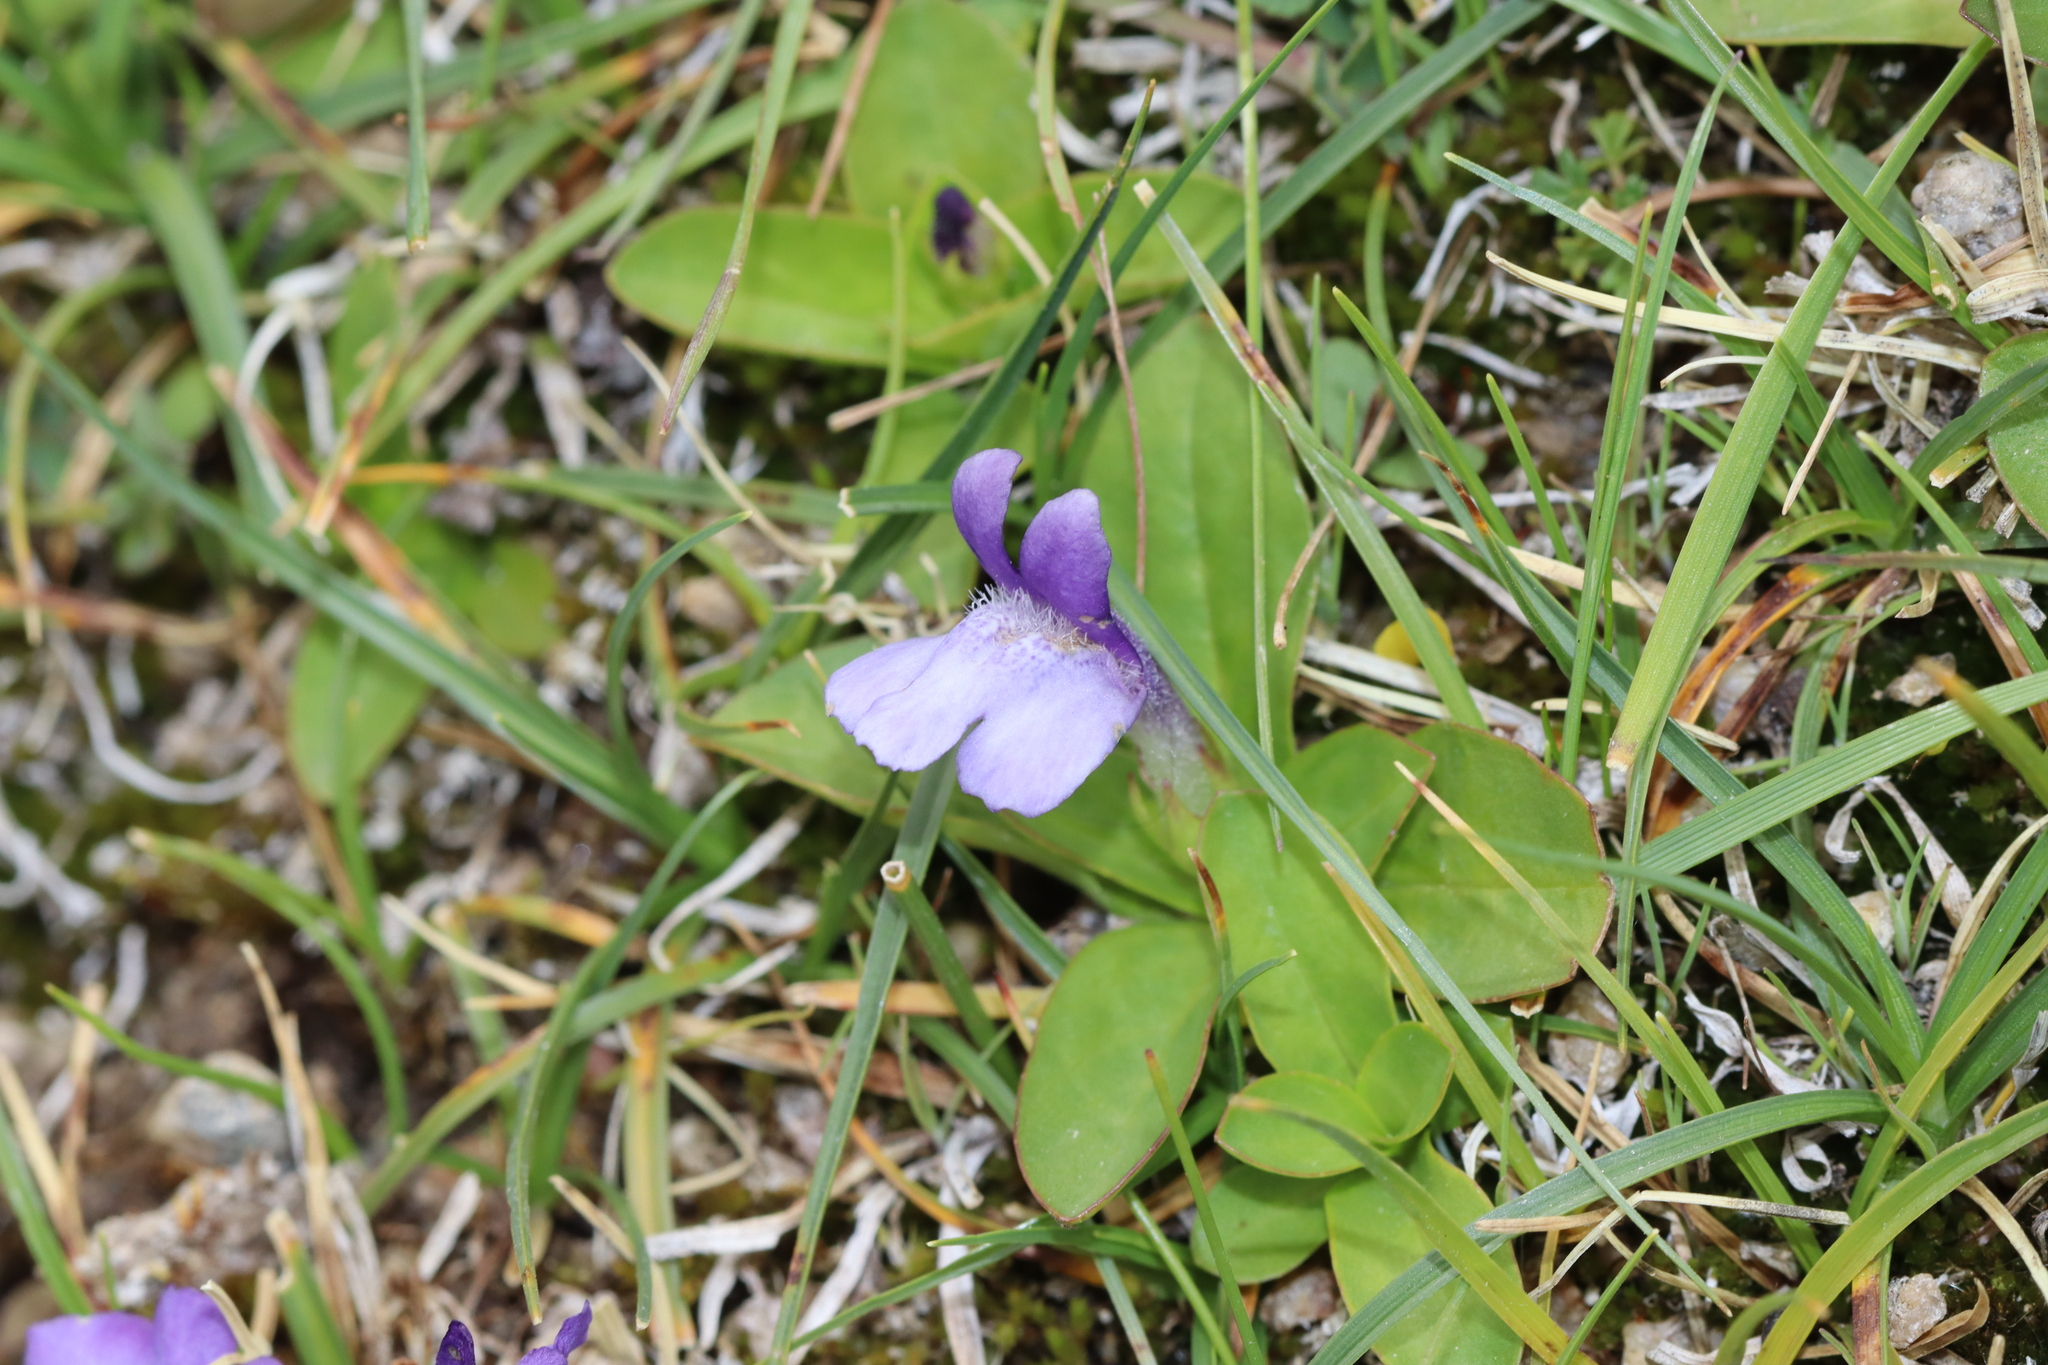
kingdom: Plantae
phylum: Tracheophyta
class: Magnoliopsida
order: Lamiales
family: Mazaceae
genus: Lancea
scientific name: Lancea tibetica
